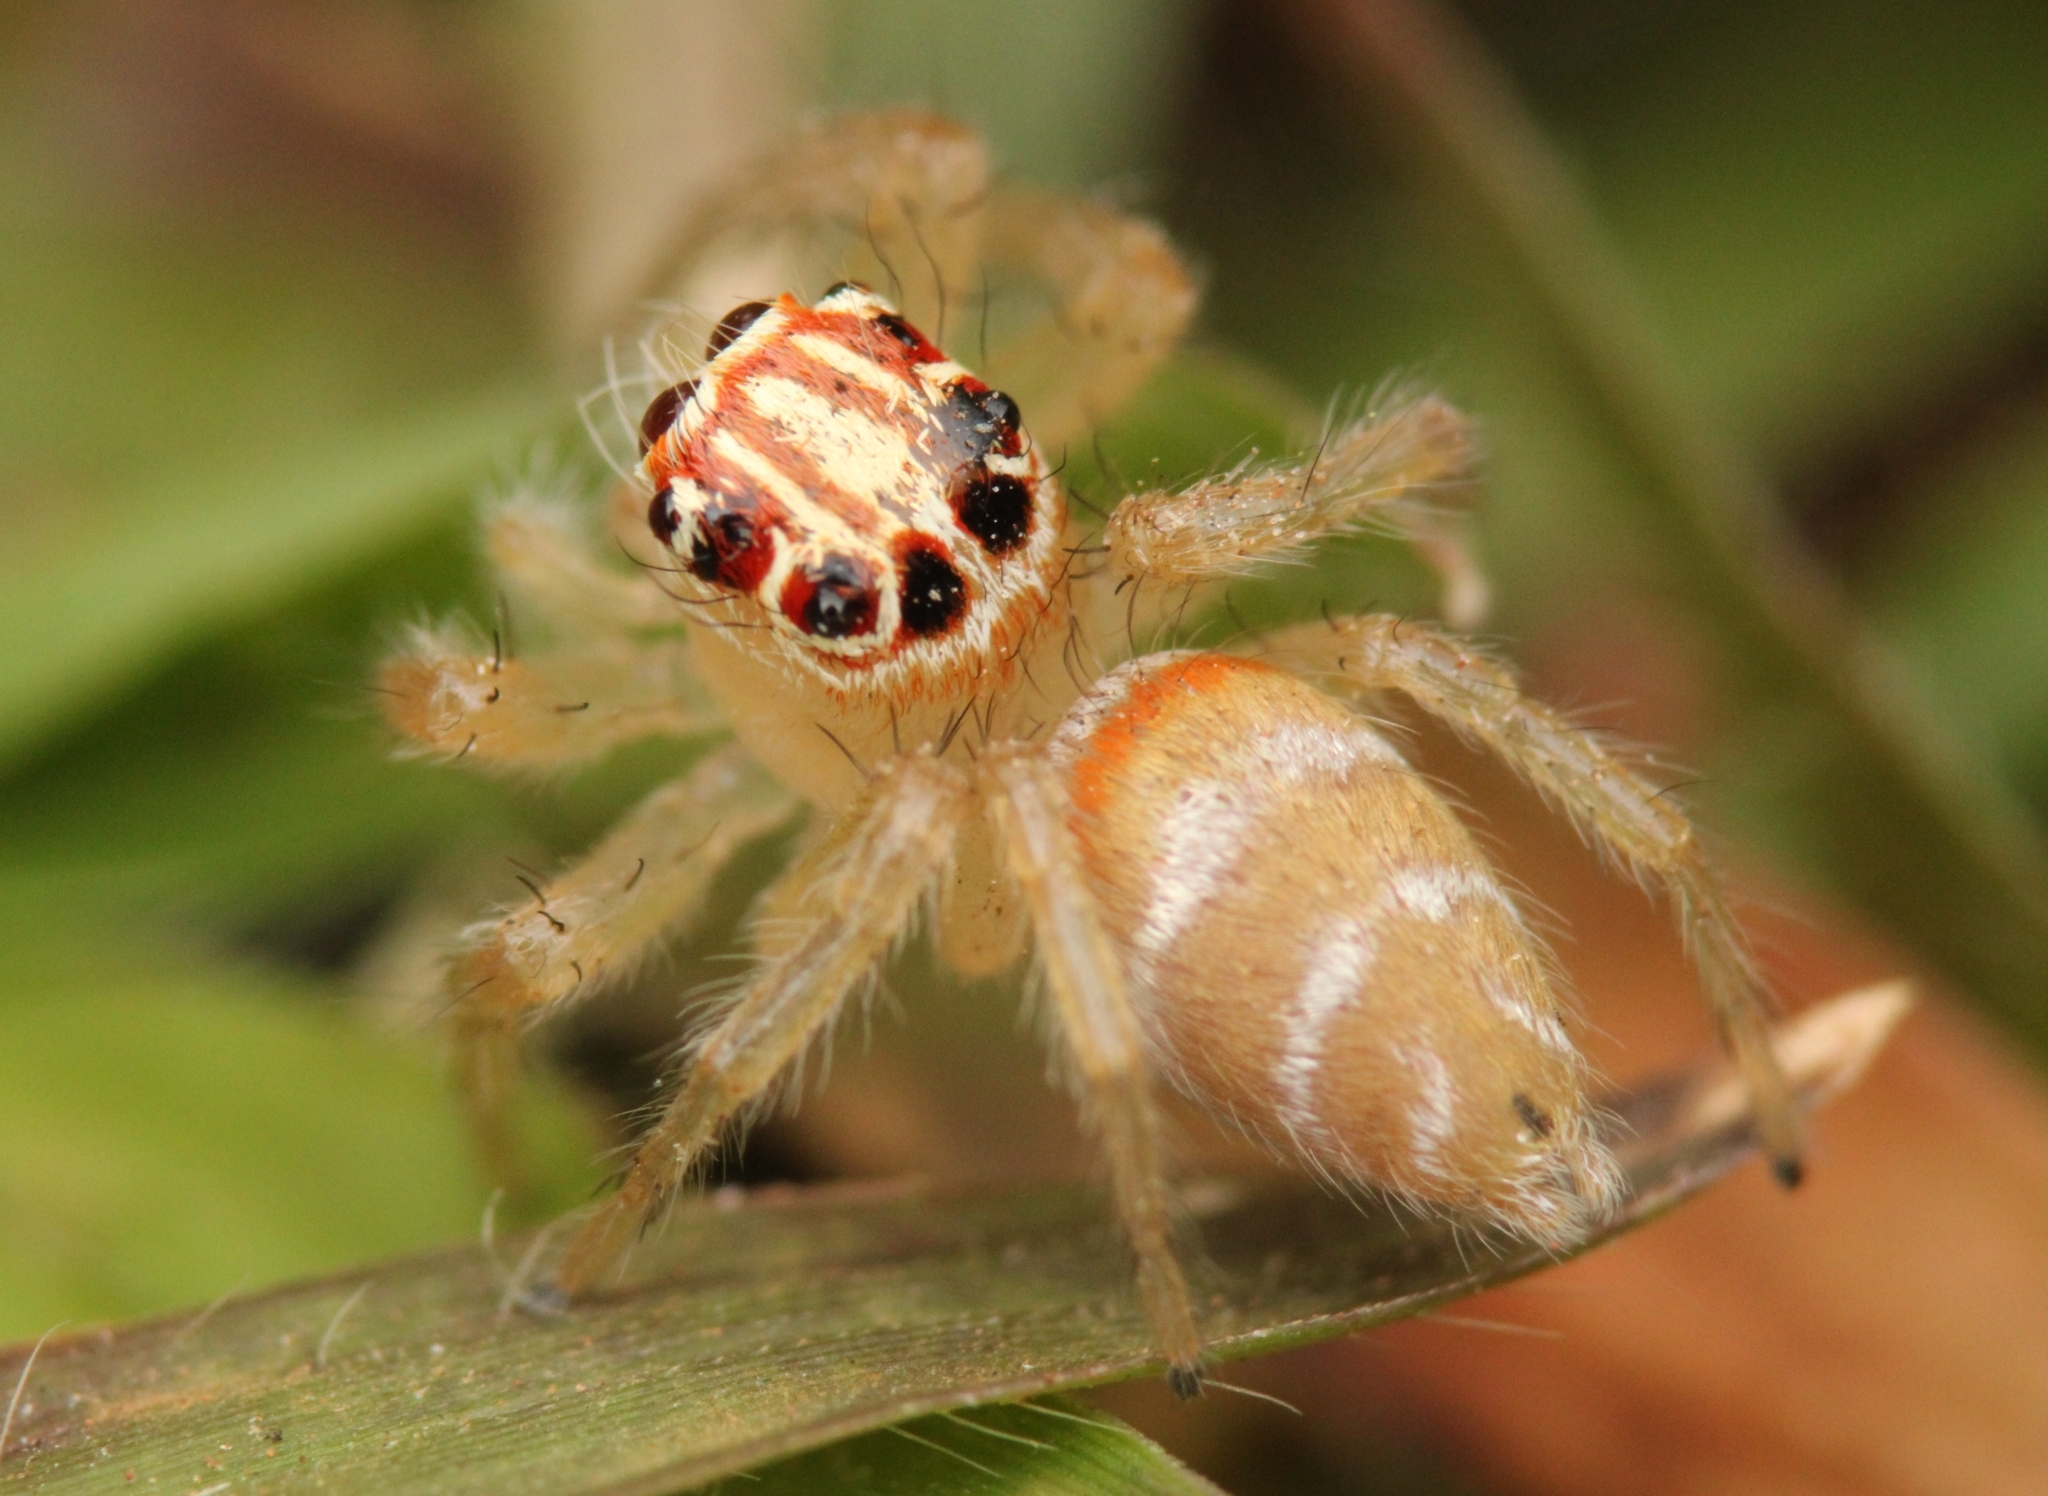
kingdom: Animalia
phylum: Arthropoda
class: Arachnida
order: Araneae
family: Salticidae
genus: Brancus
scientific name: Brancus mustelus
